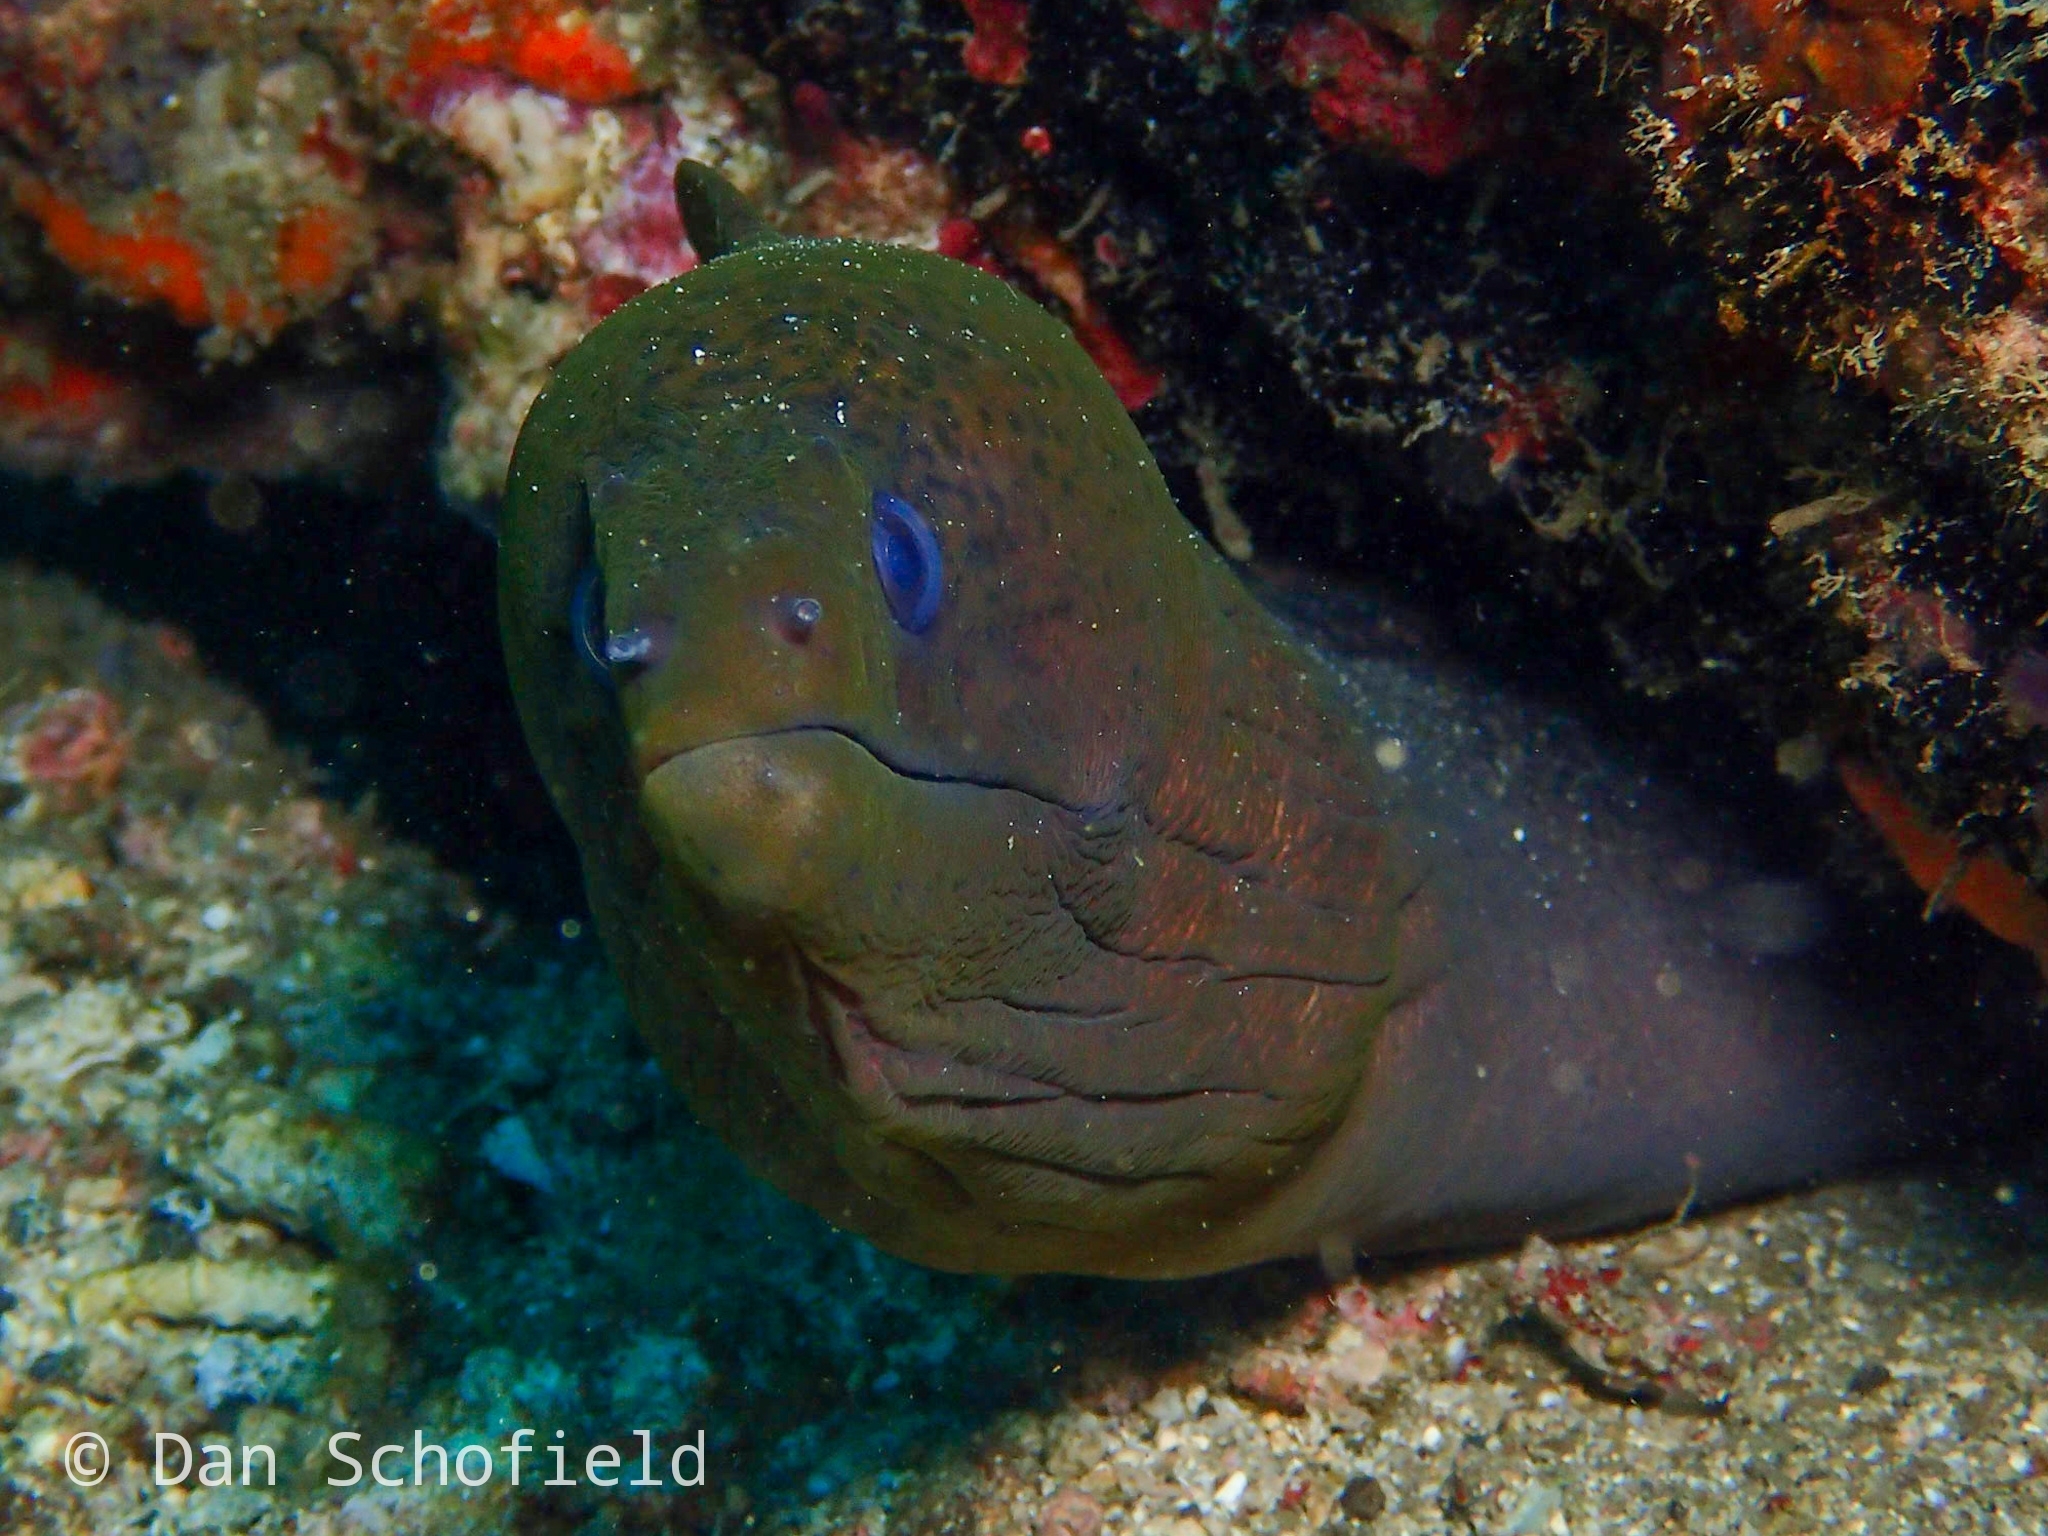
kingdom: Animalia
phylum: Chordata
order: Anguilliformes
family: Muraenidae
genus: Gymnothorax
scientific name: Gymnothorax javanicus
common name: Giant moray
